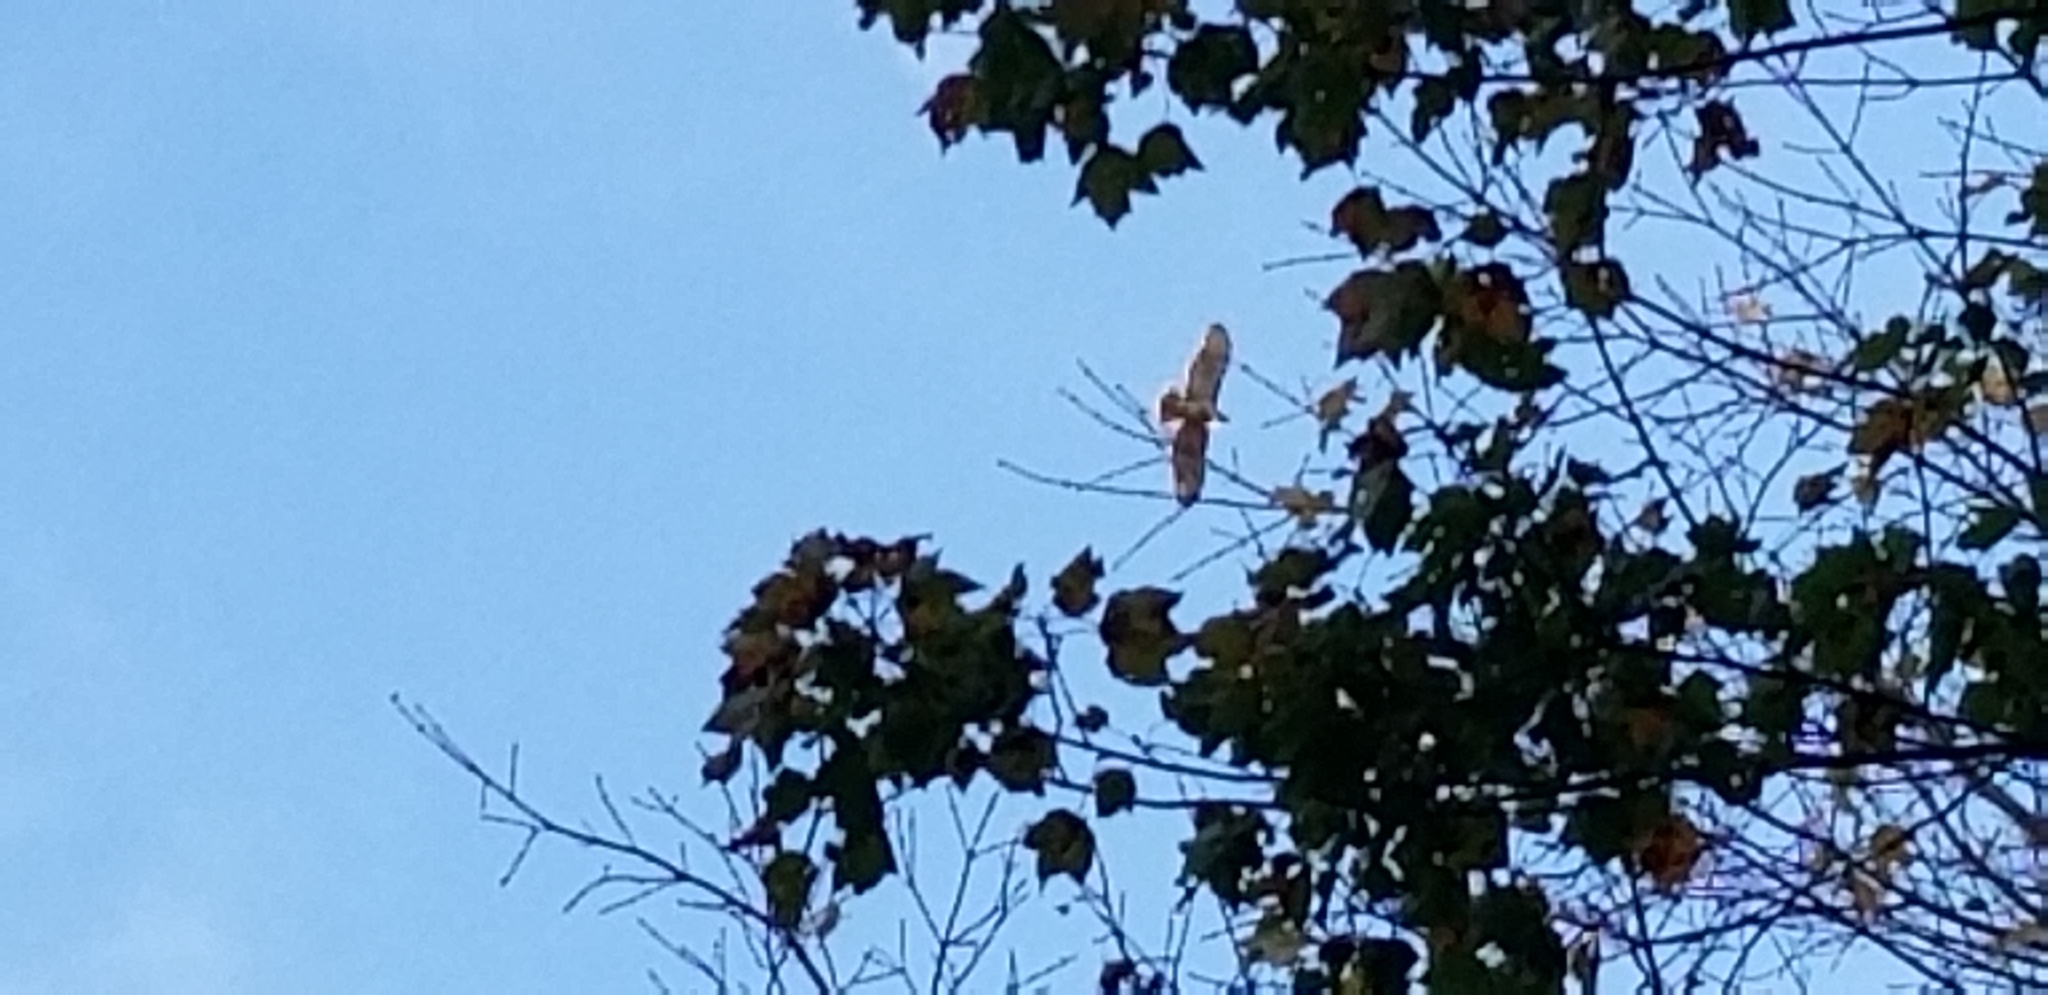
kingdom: Animalia
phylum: Chordata
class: Aves
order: Accipitriformes
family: Accipitridae
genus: Buteo
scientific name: Buteo jamaicensis
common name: Red-tailed hawk
